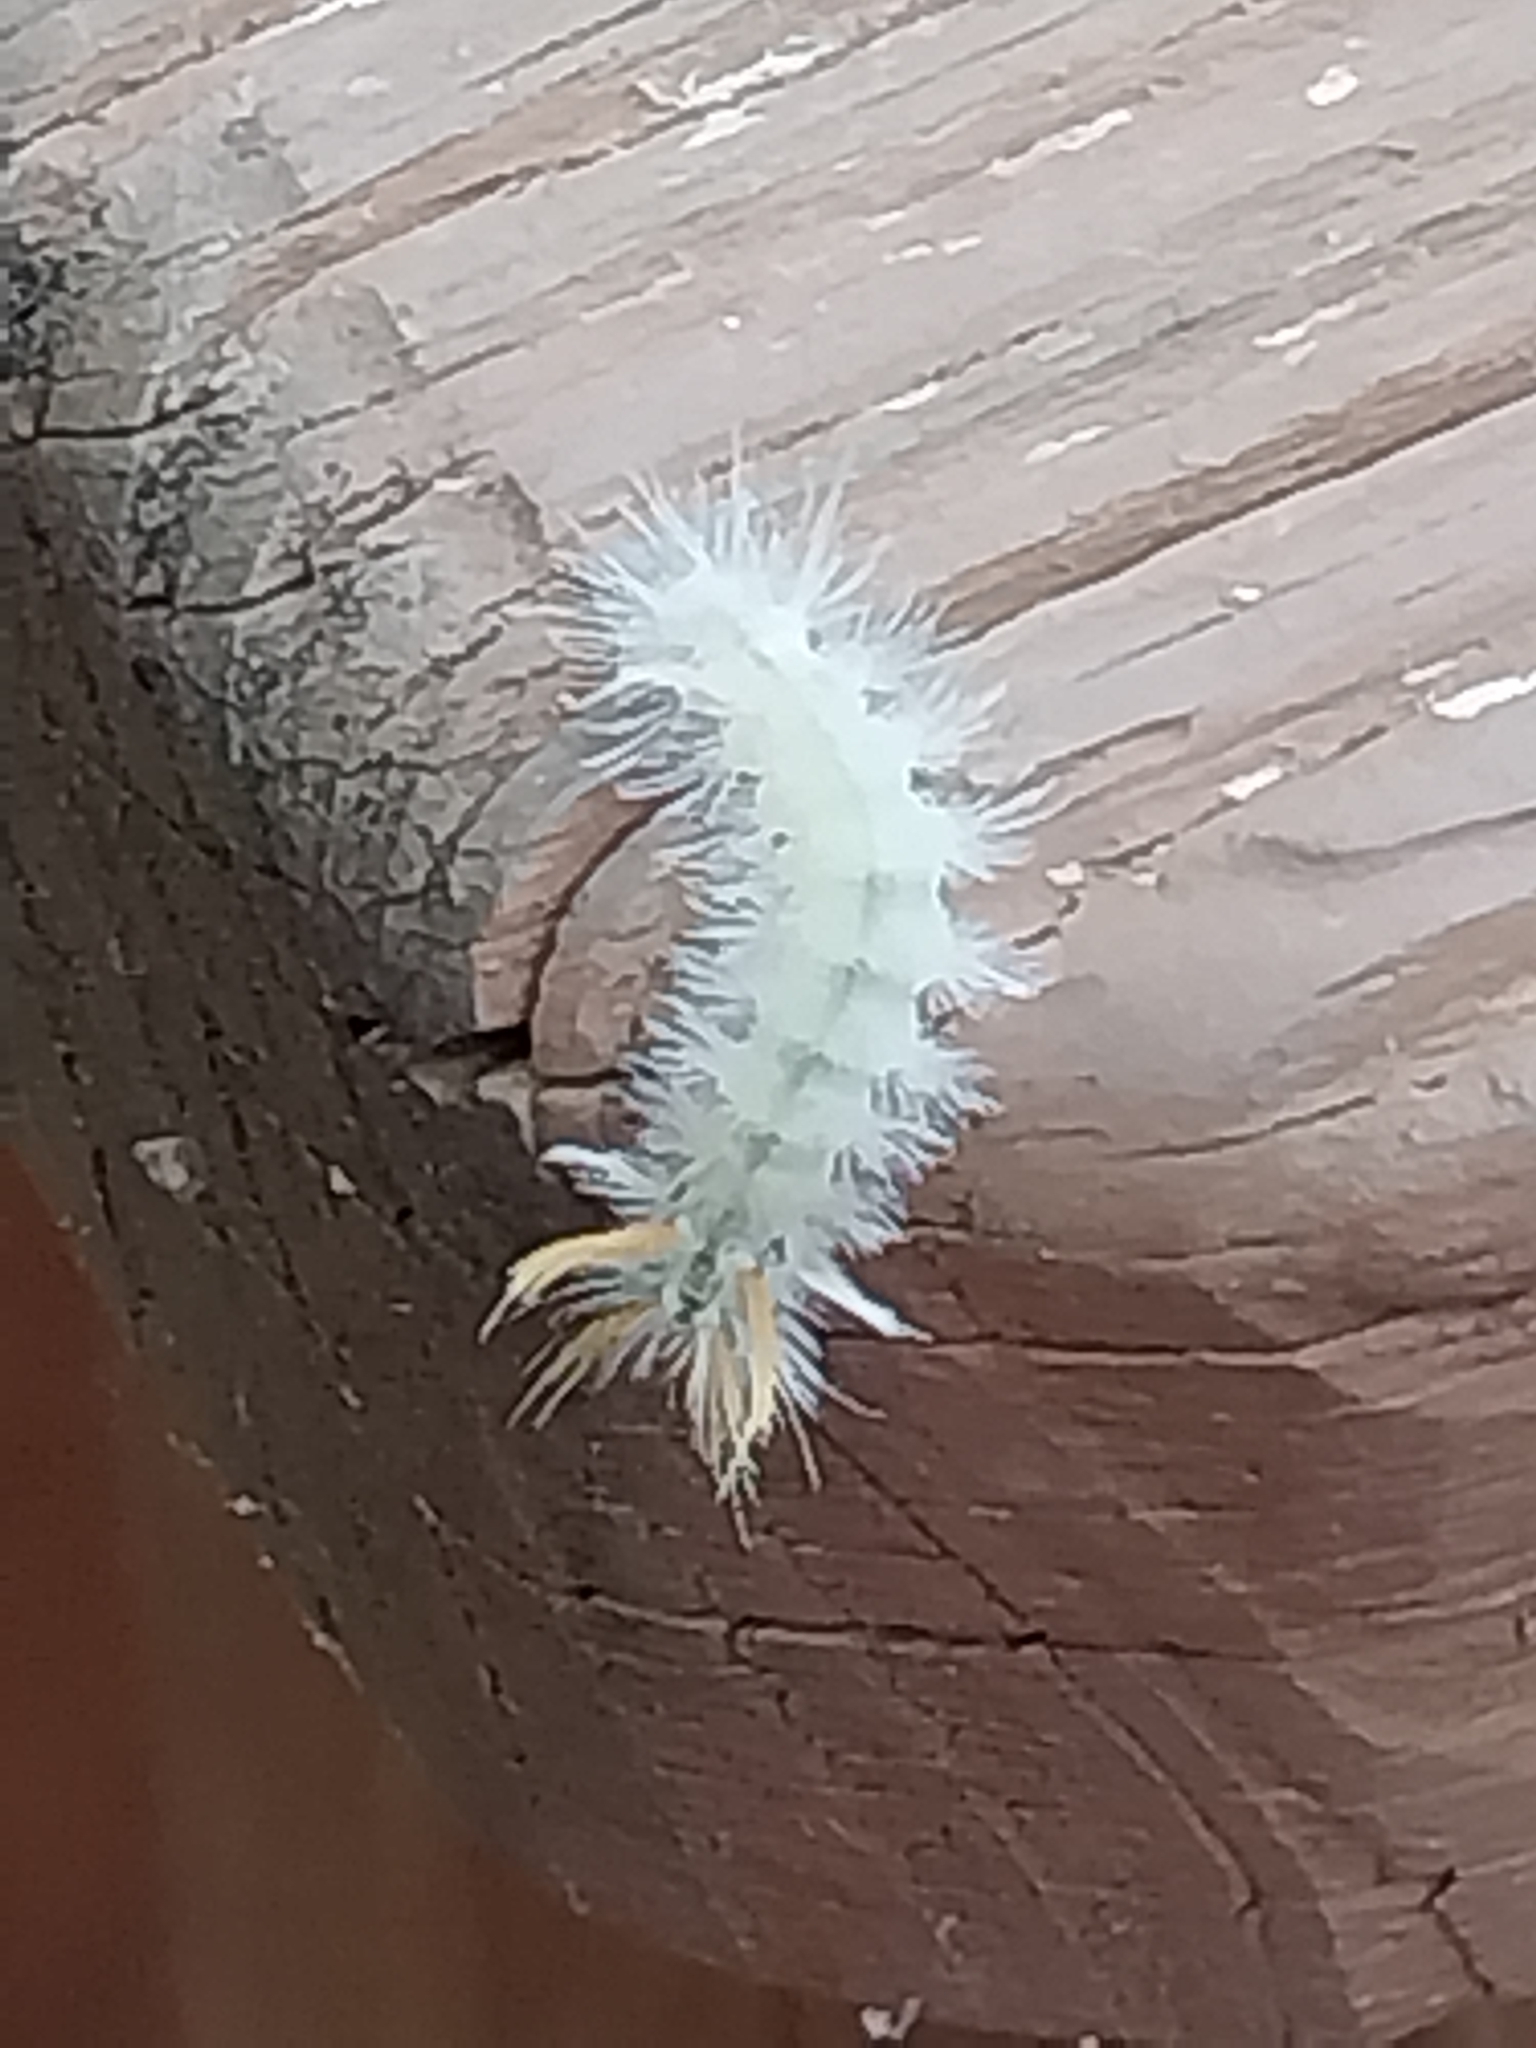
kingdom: Animalia
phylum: Arthropoda
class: Insecta
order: Lepidoptera
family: Erebidae
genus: Halysidota
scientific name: Halysidota harrisii
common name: Sycamore tussock moth
